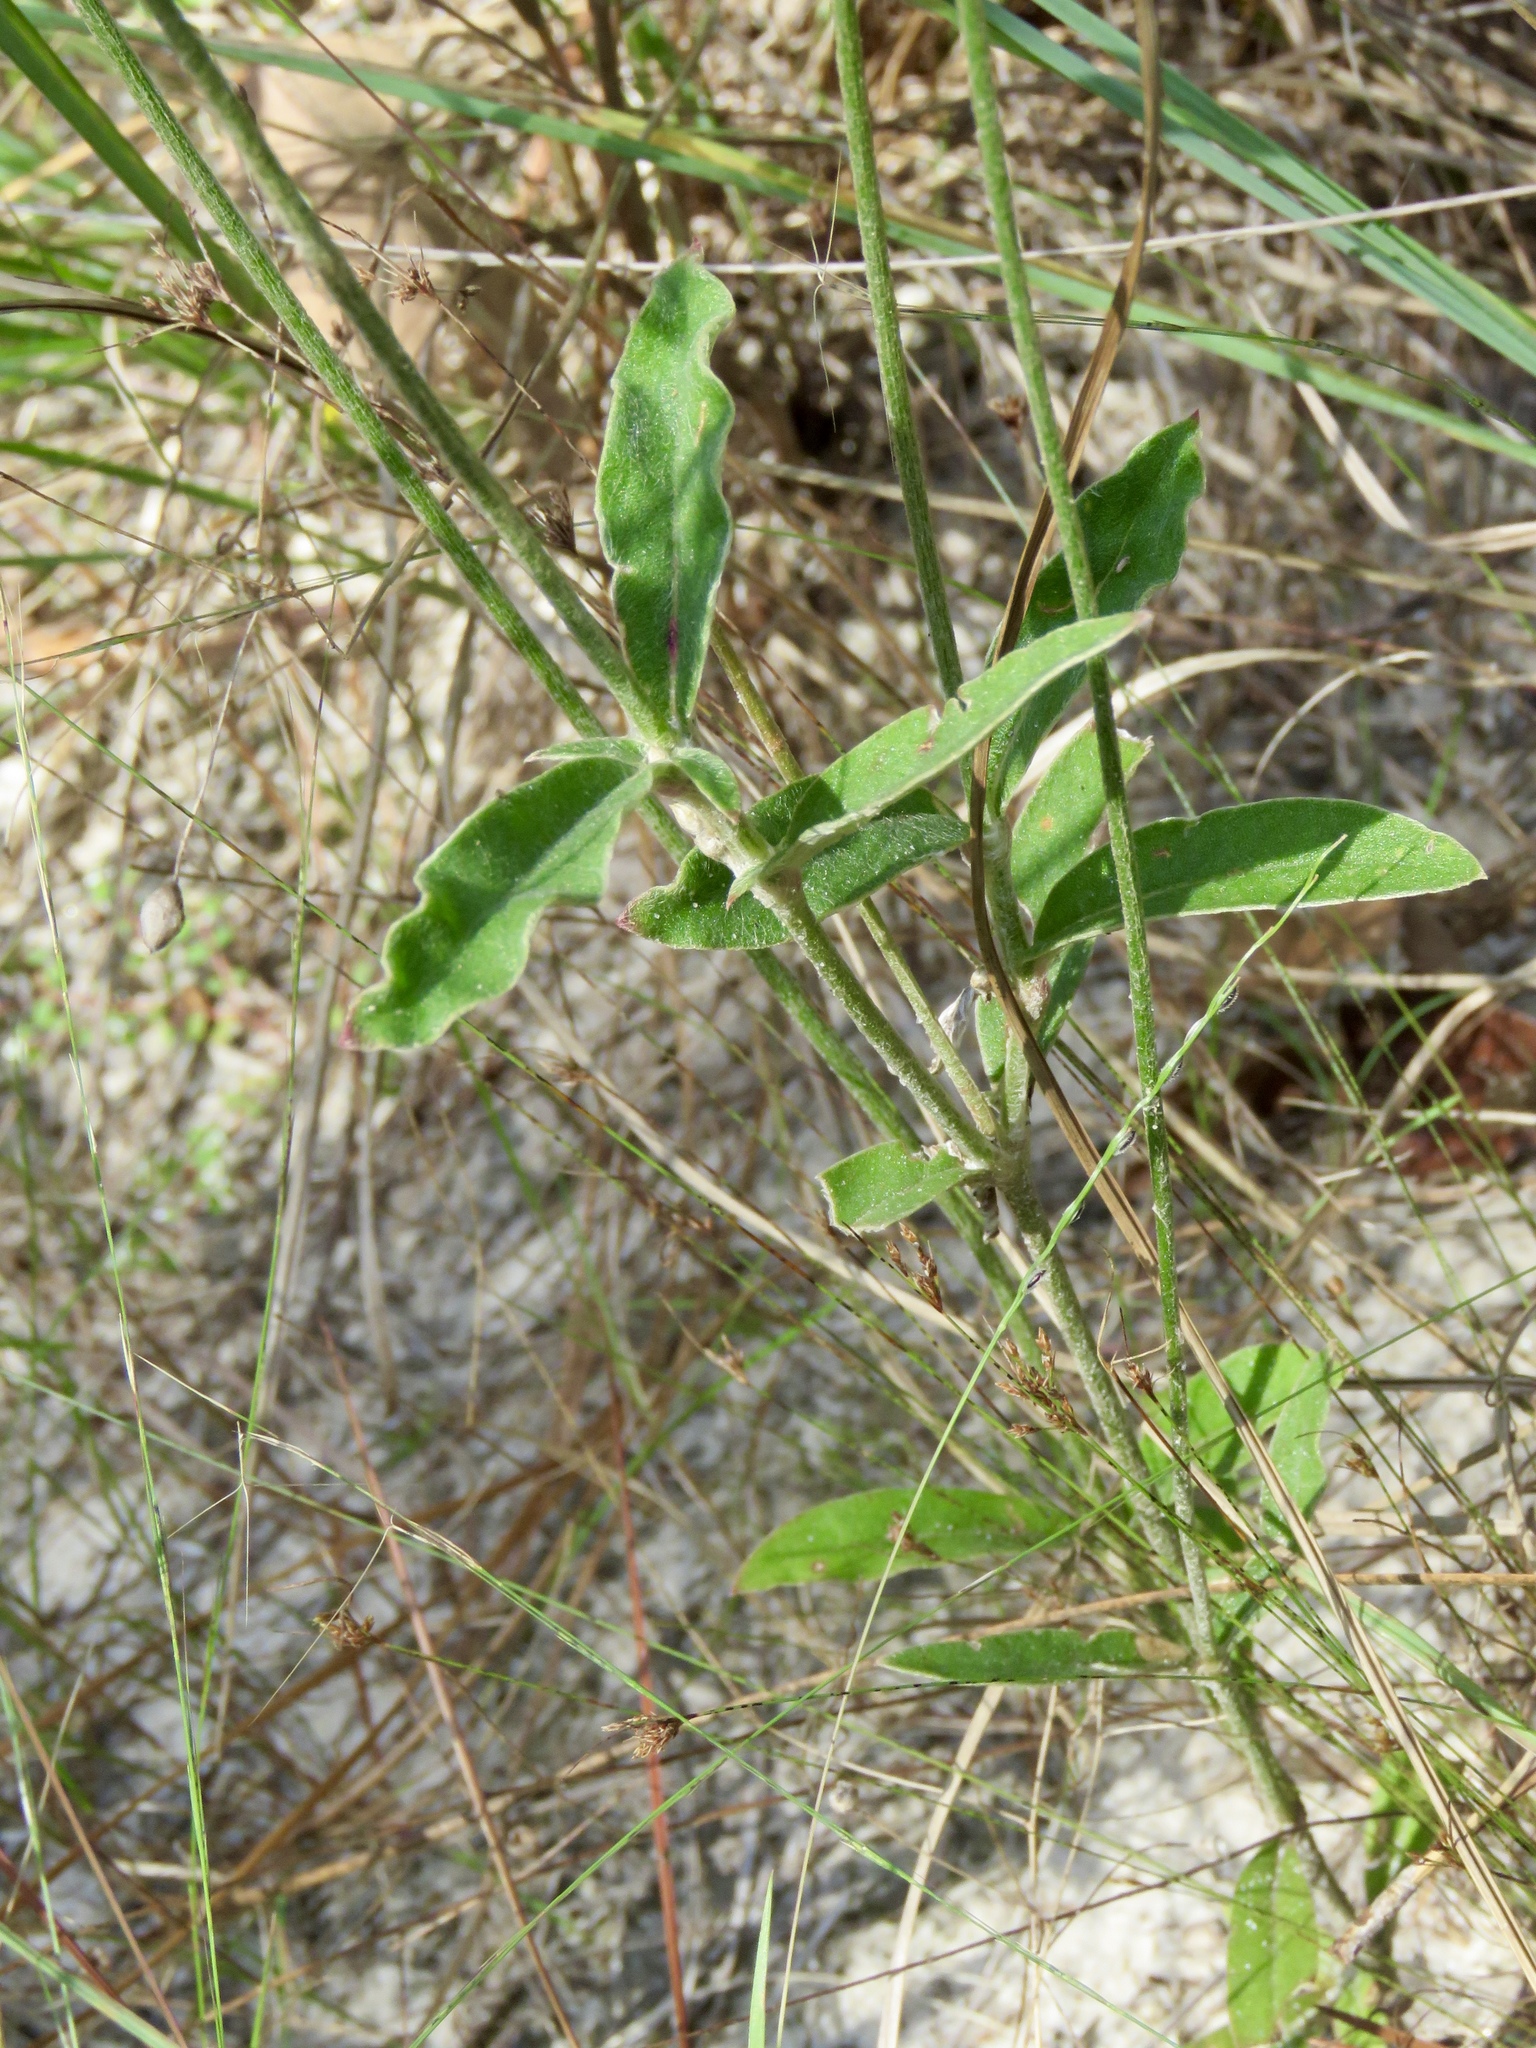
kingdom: Plantae
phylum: Tracheophyta
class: Magnoliopsida
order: Caryophyllales
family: Amaranthaceae
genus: Froelichia
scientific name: Froelichia floridana
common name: Florida snake-cotton
